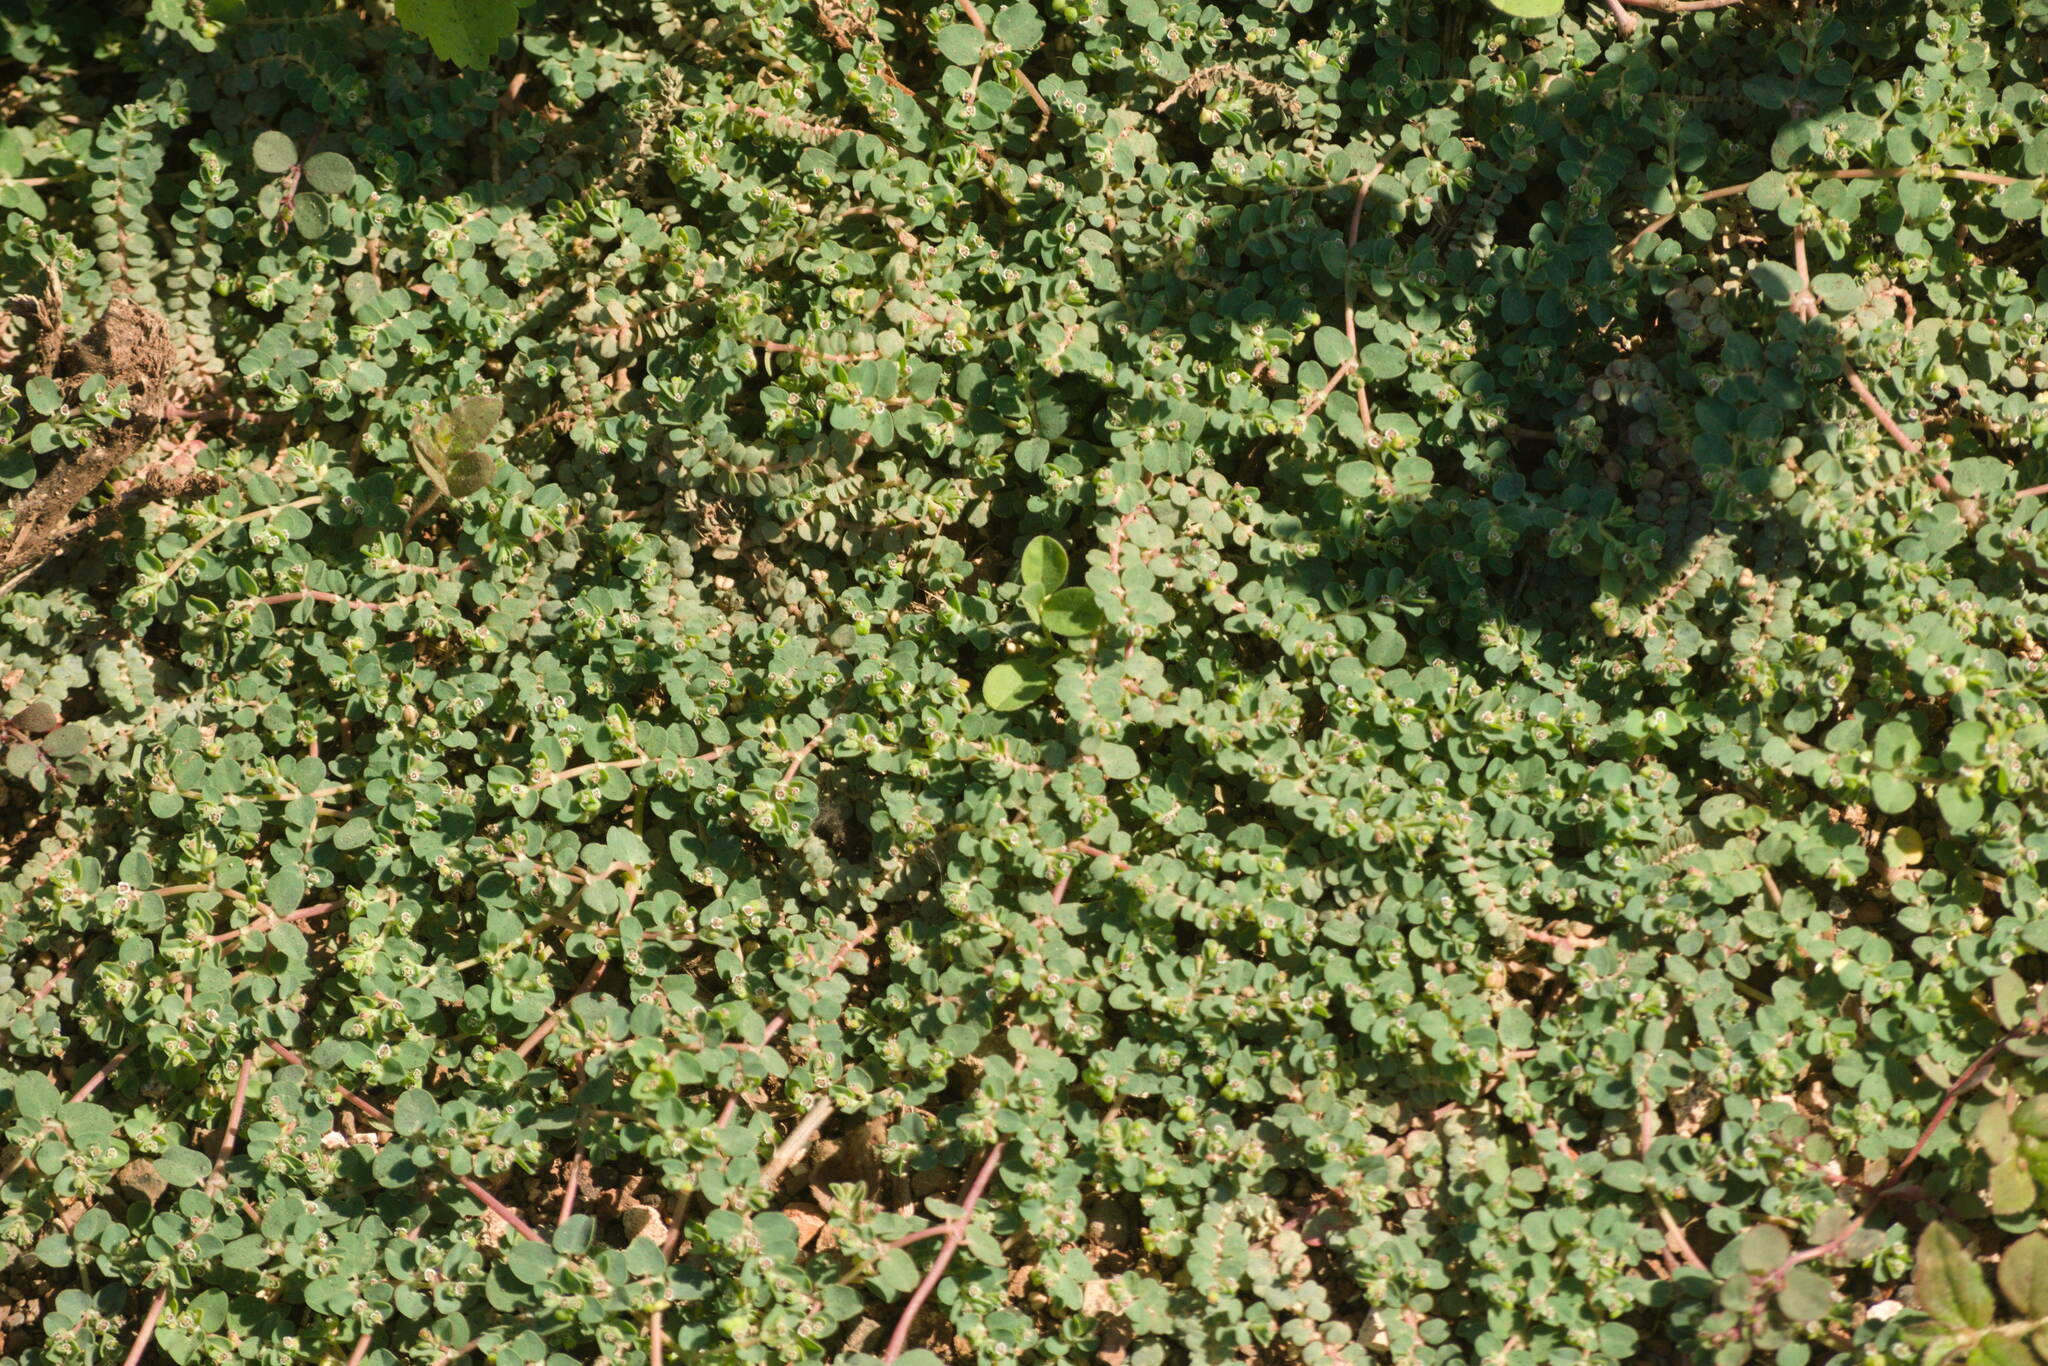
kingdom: Plantae
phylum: Tracheophyta
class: Magnoliopsida
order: Malpighiales
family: Euphorbiaceae
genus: Euphorbia
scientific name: Euphorbia serpens
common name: Matted sandmat
